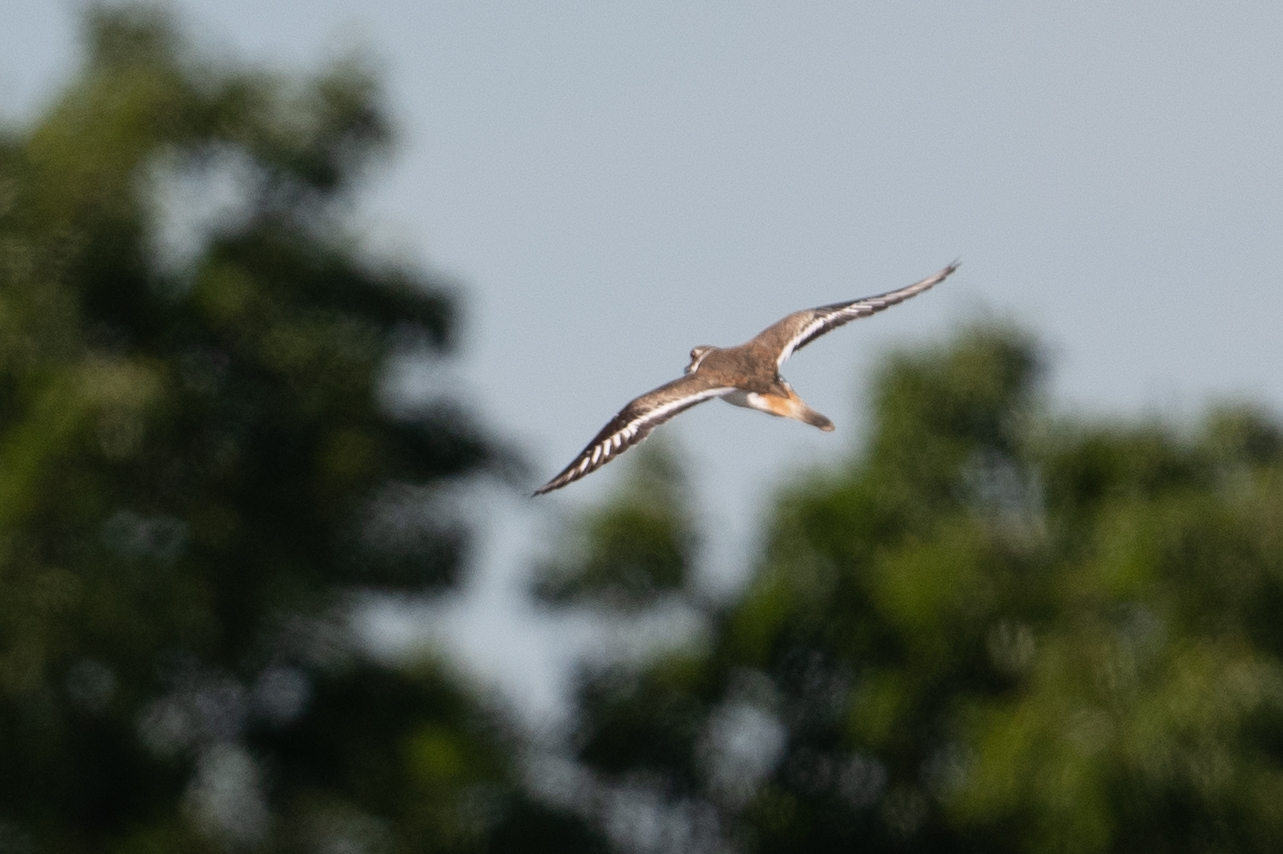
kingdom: Animalia
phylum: Chordata
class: Aves
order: Charadriiformes
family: Charadriidae
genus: Charadrius
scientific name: Charadrius vociferus
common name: Killdeer
